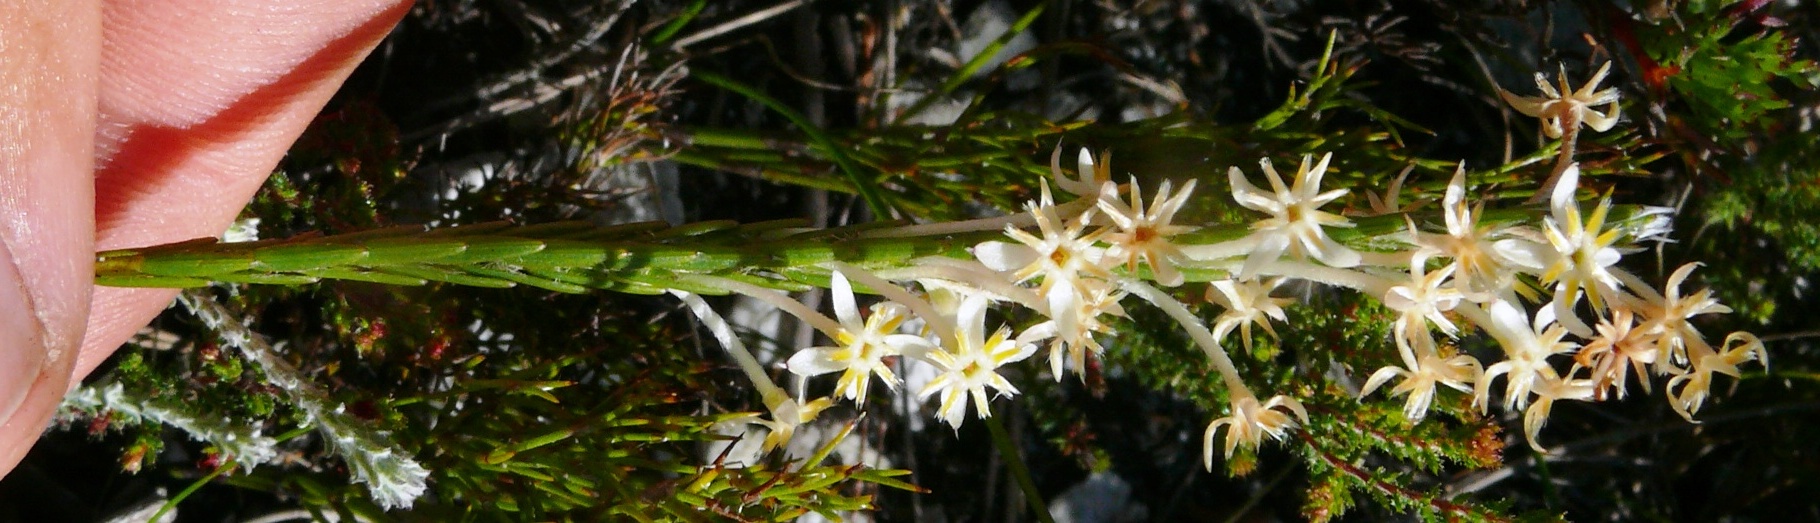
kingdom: Plantae
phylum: Tracheophyta
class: Magnoliopsida
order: Malvales
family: Thymelaeaceae
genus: Struthiola
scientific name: Struthiola ciliata
